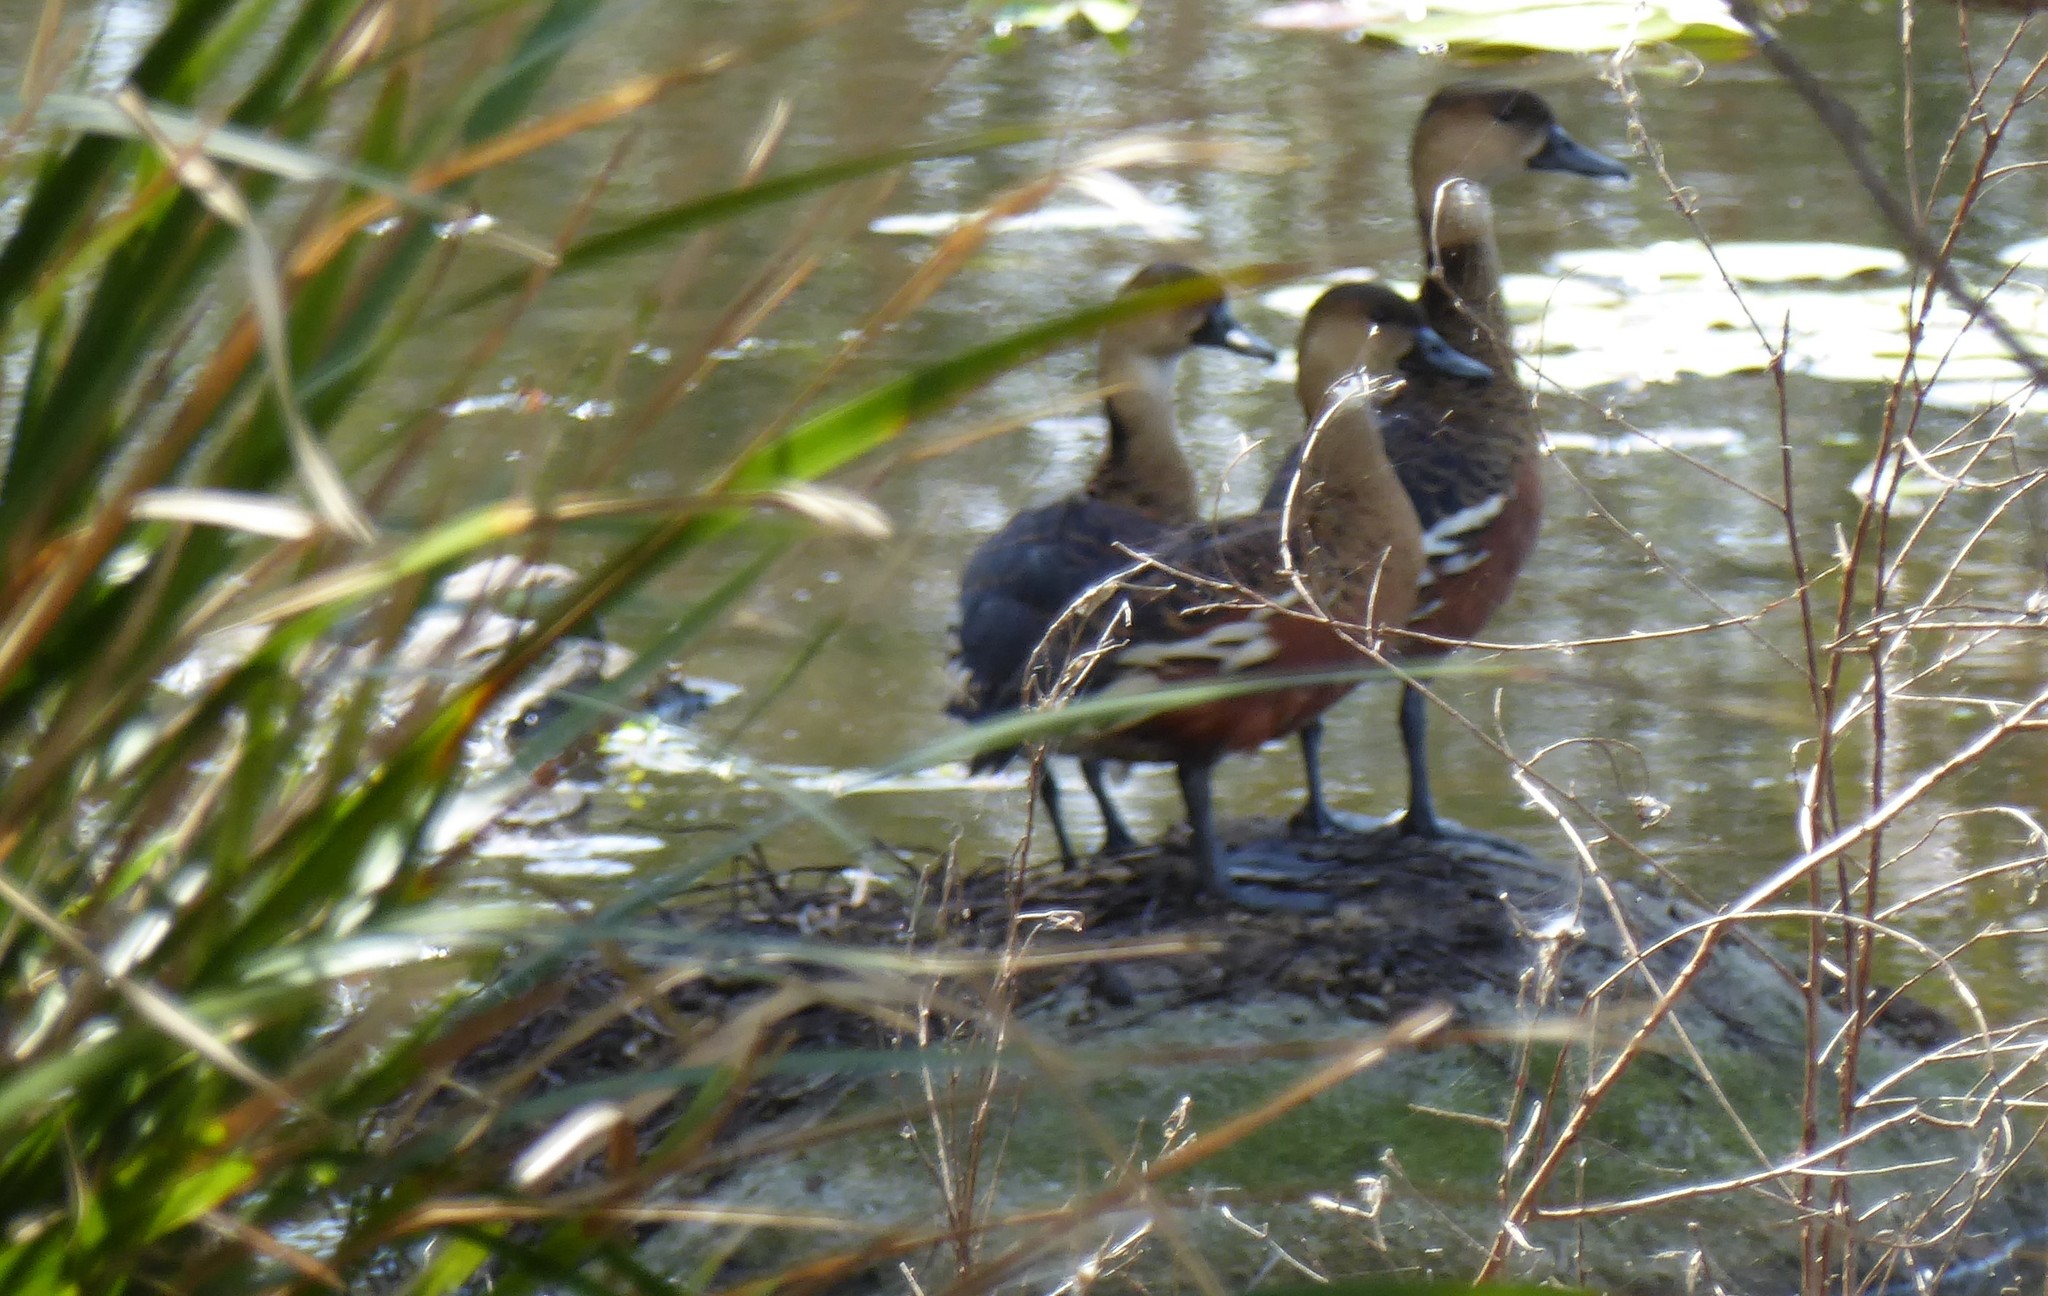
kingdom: Animalia
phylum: Chordata
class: Aves
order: Anseriformes
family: Anatidae
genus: Dendrocygna
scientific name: Dendrocygna arcuata
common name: Wandering whistling-duck
